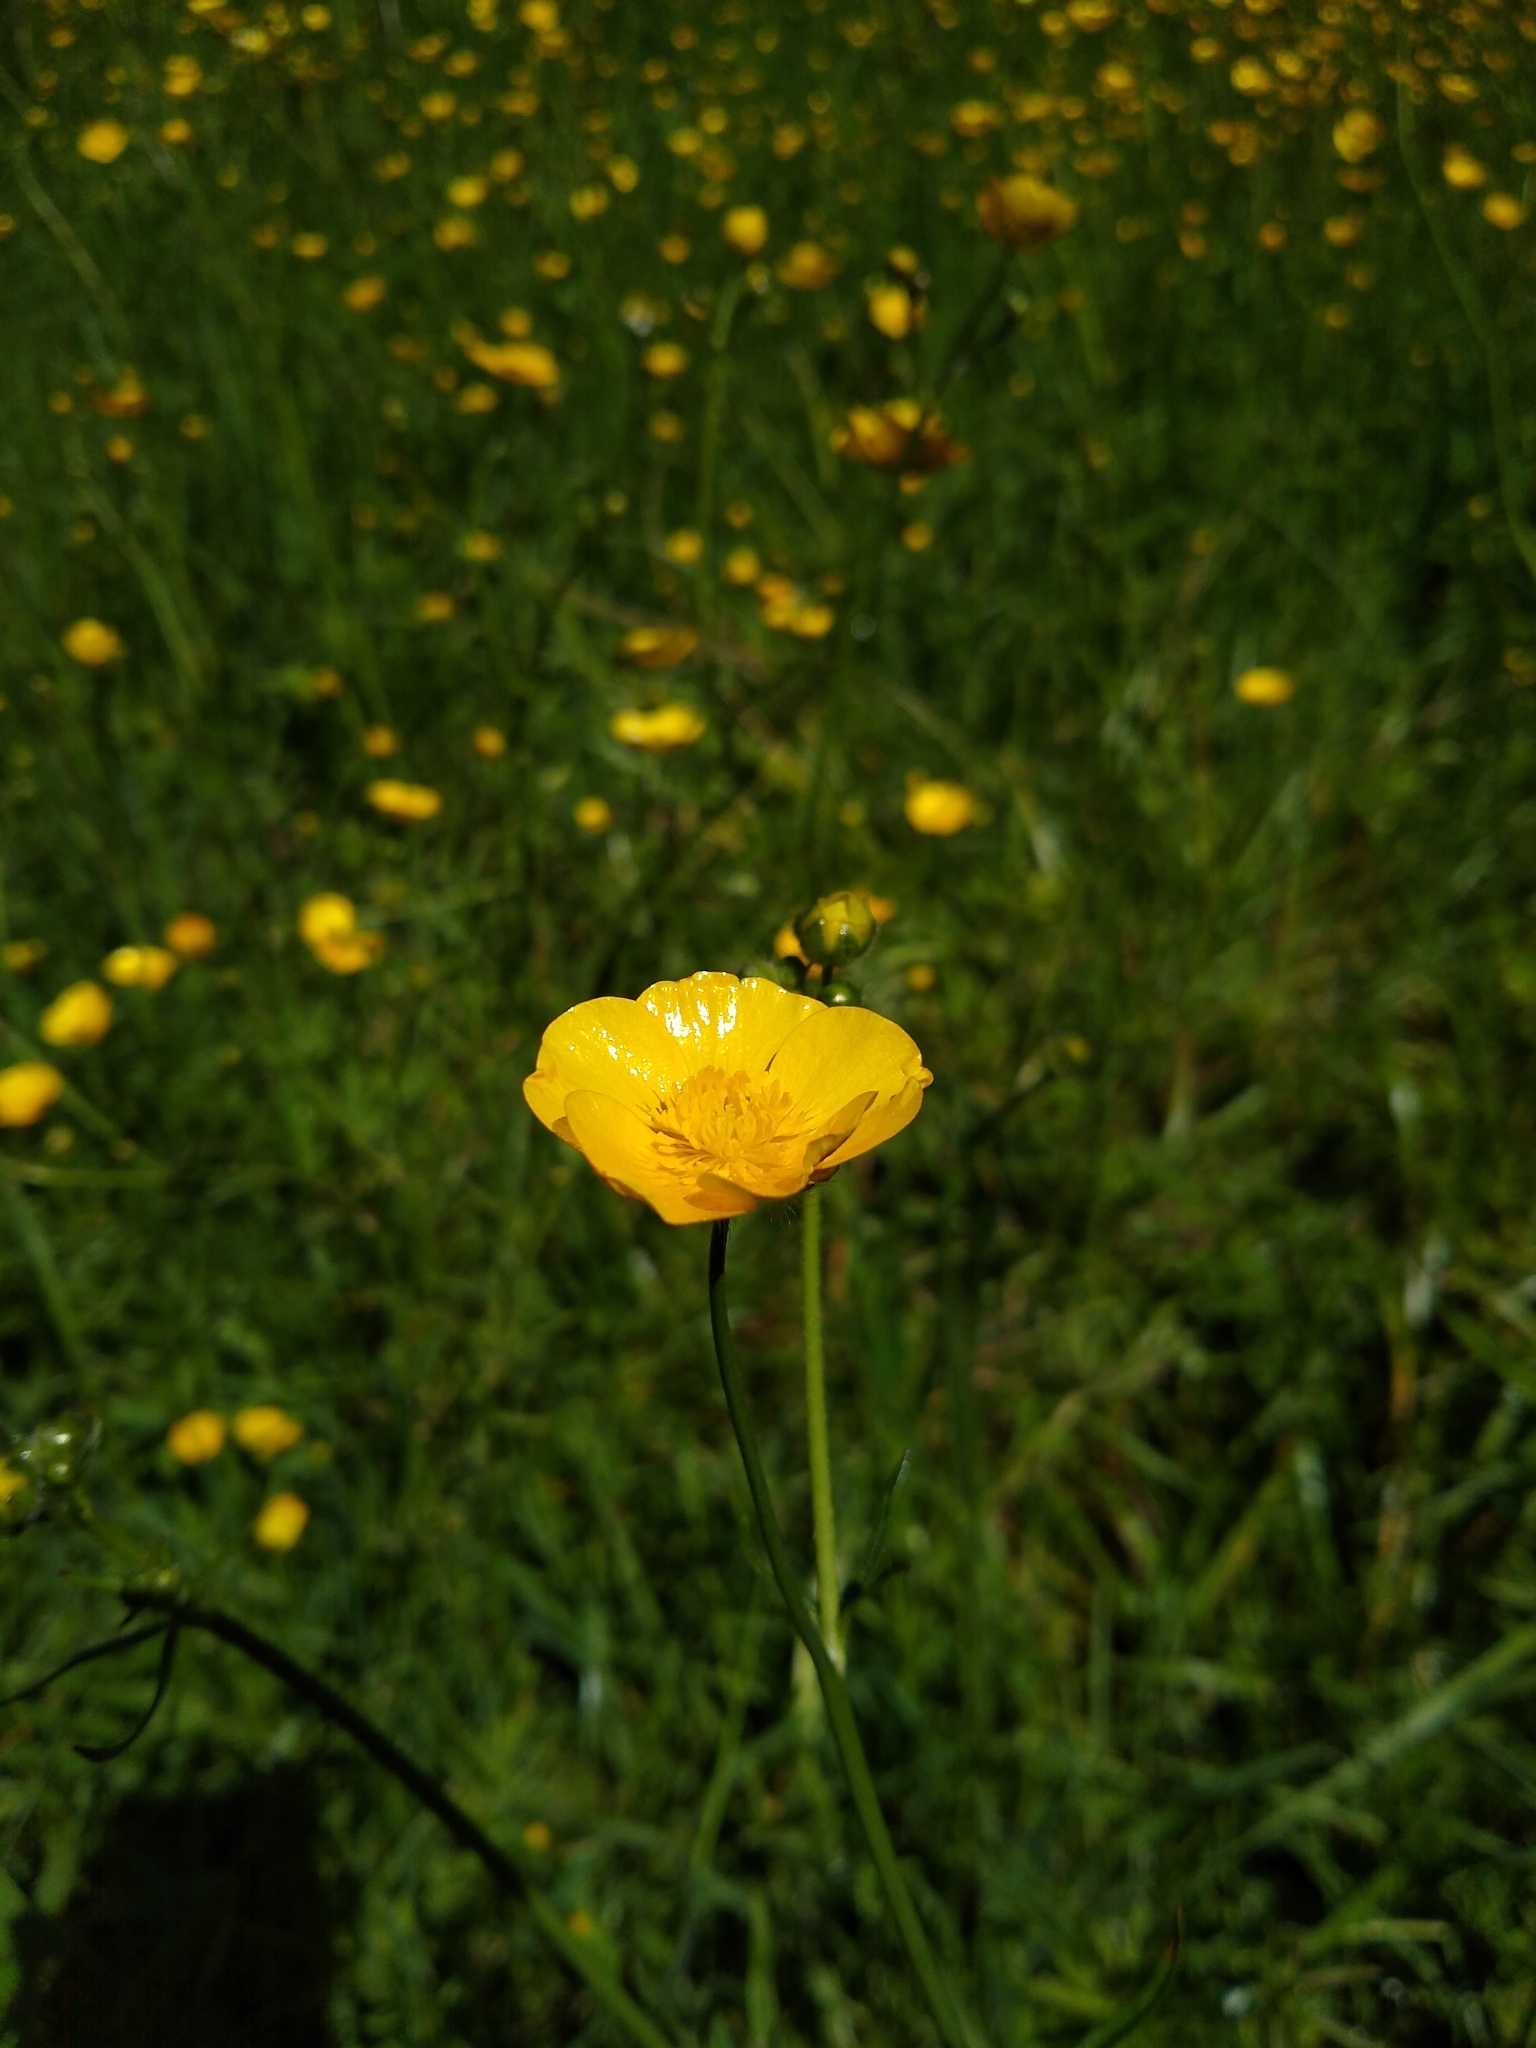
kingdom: Plantae
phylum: Tracheophyta
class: Magnoliopsida
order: Ranunculales
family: Ranunculaceae
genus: Ranunculus
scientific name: Ranunculus acris
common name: Meadow buttercup
